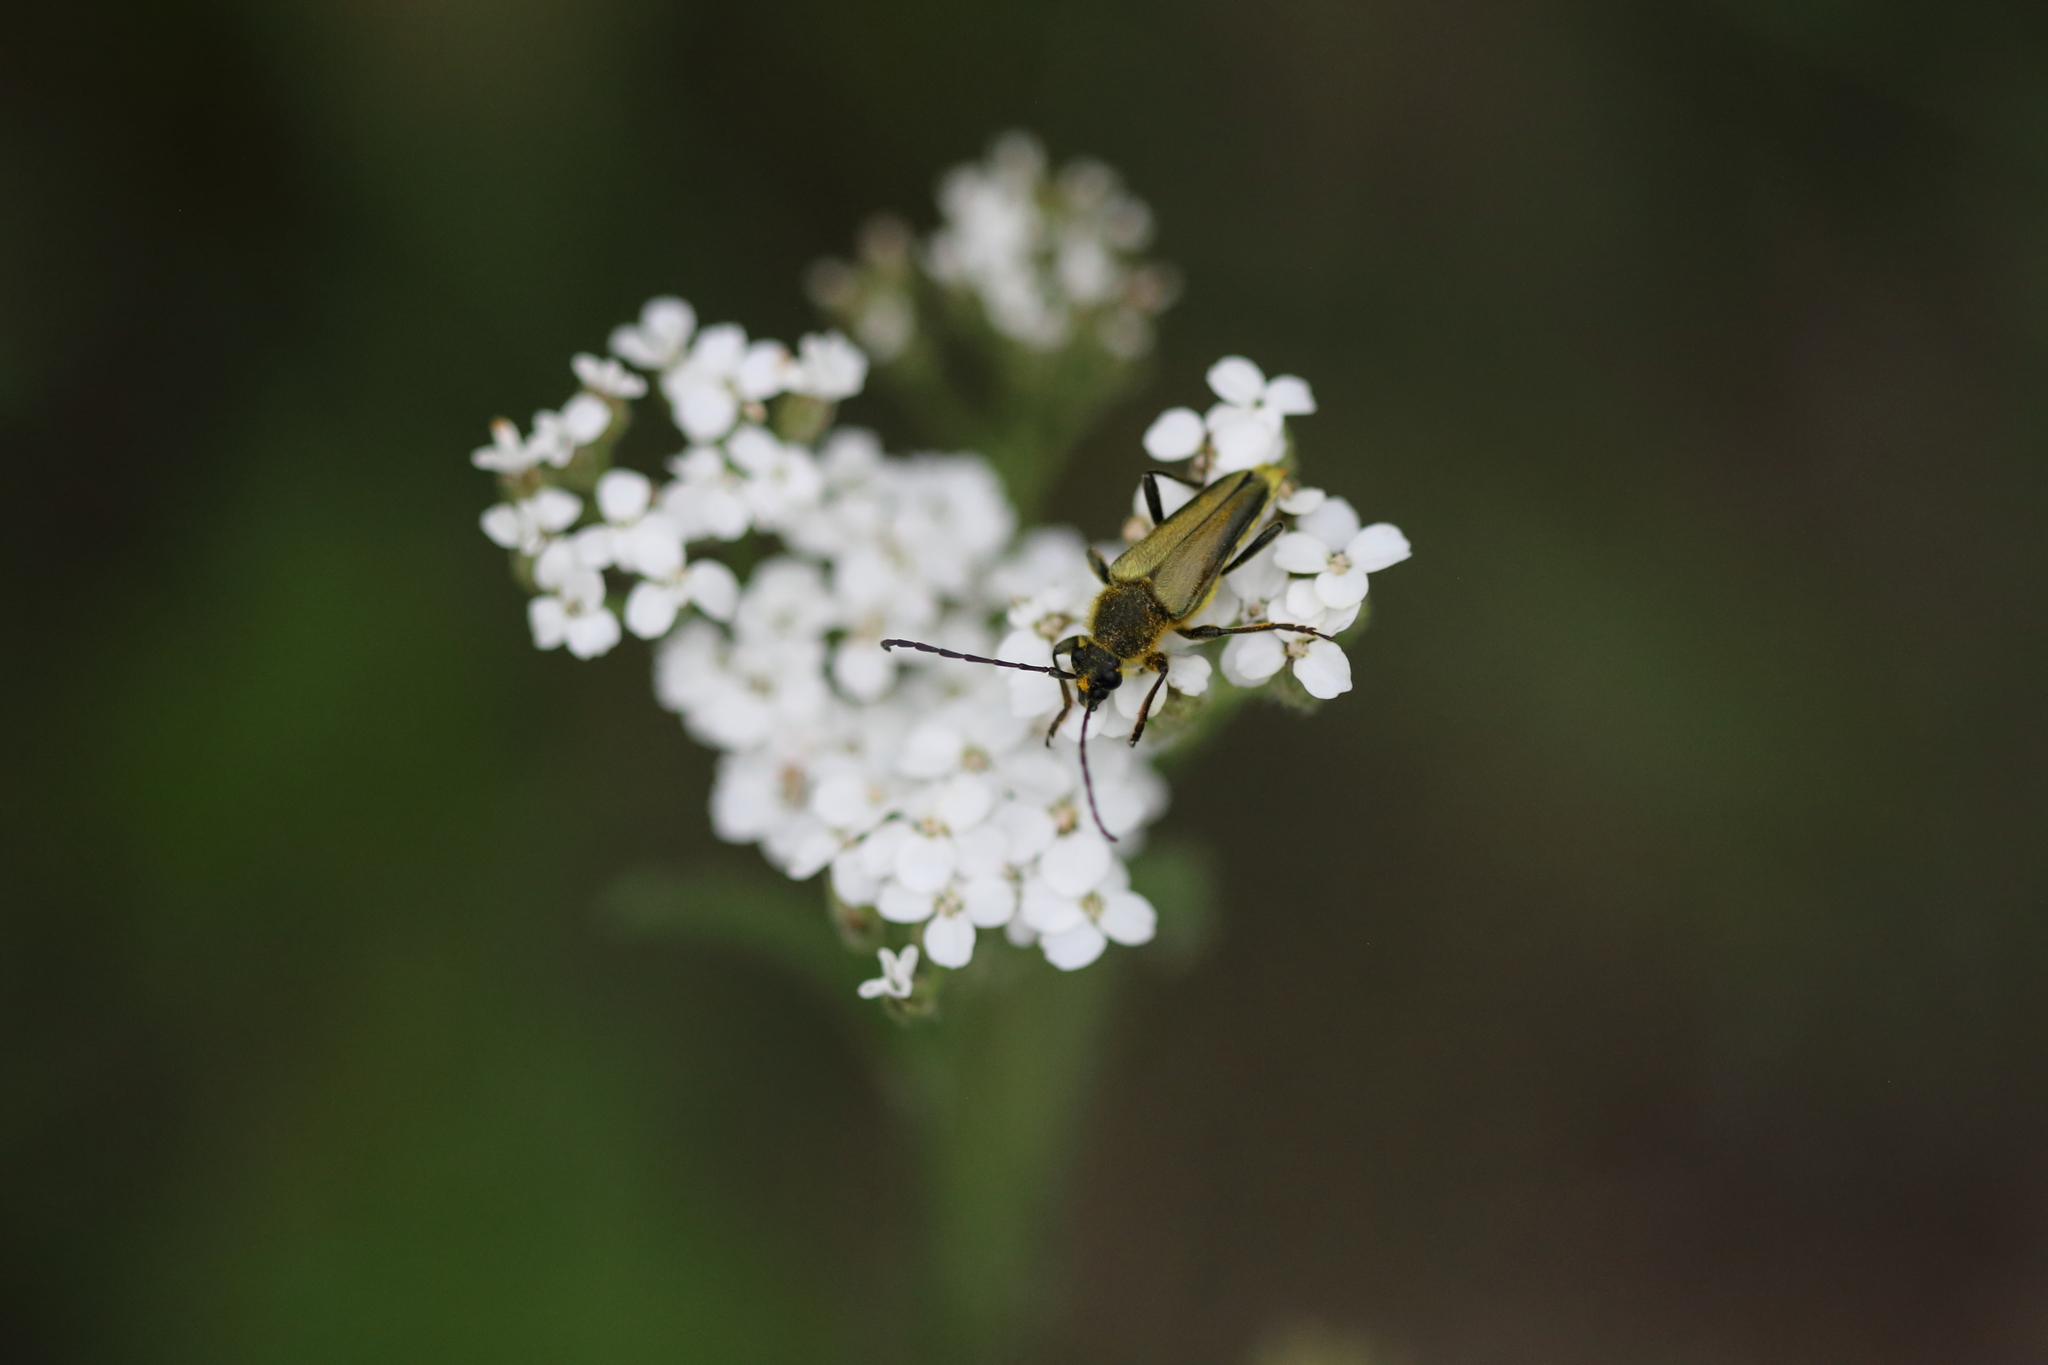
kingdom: Animalia
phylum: Arthropoda
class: Insecta
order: Coleoptera
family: Cerambycidae
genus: Cosmosalia
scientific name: Cosmosalia chrysocoma
